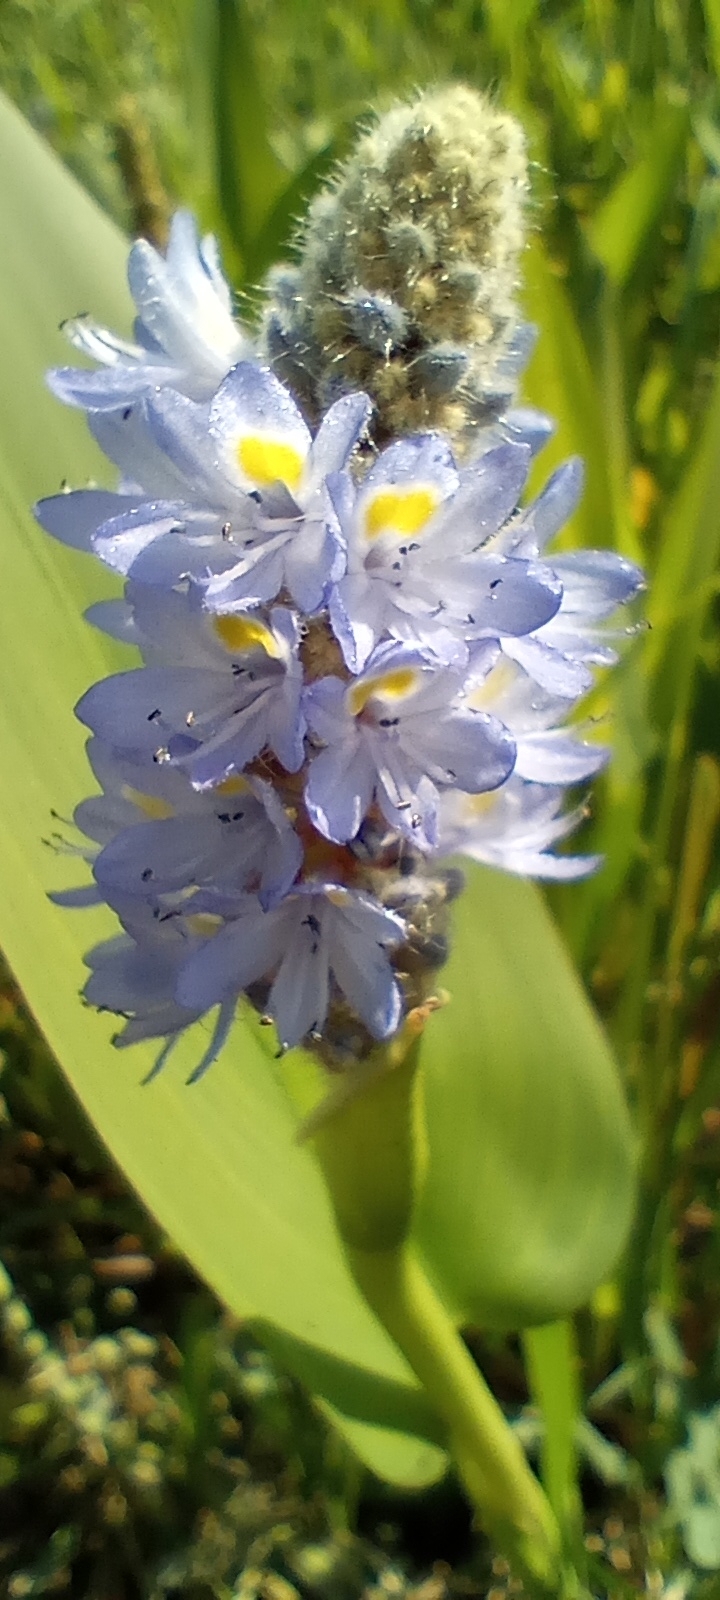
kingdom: Plantae
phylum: Tracheophyta
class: Liliopsida
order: Commelinales
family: Pontederiaceae
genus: Pontederia
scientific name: Pontederia cordata
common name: Pickerelweed
